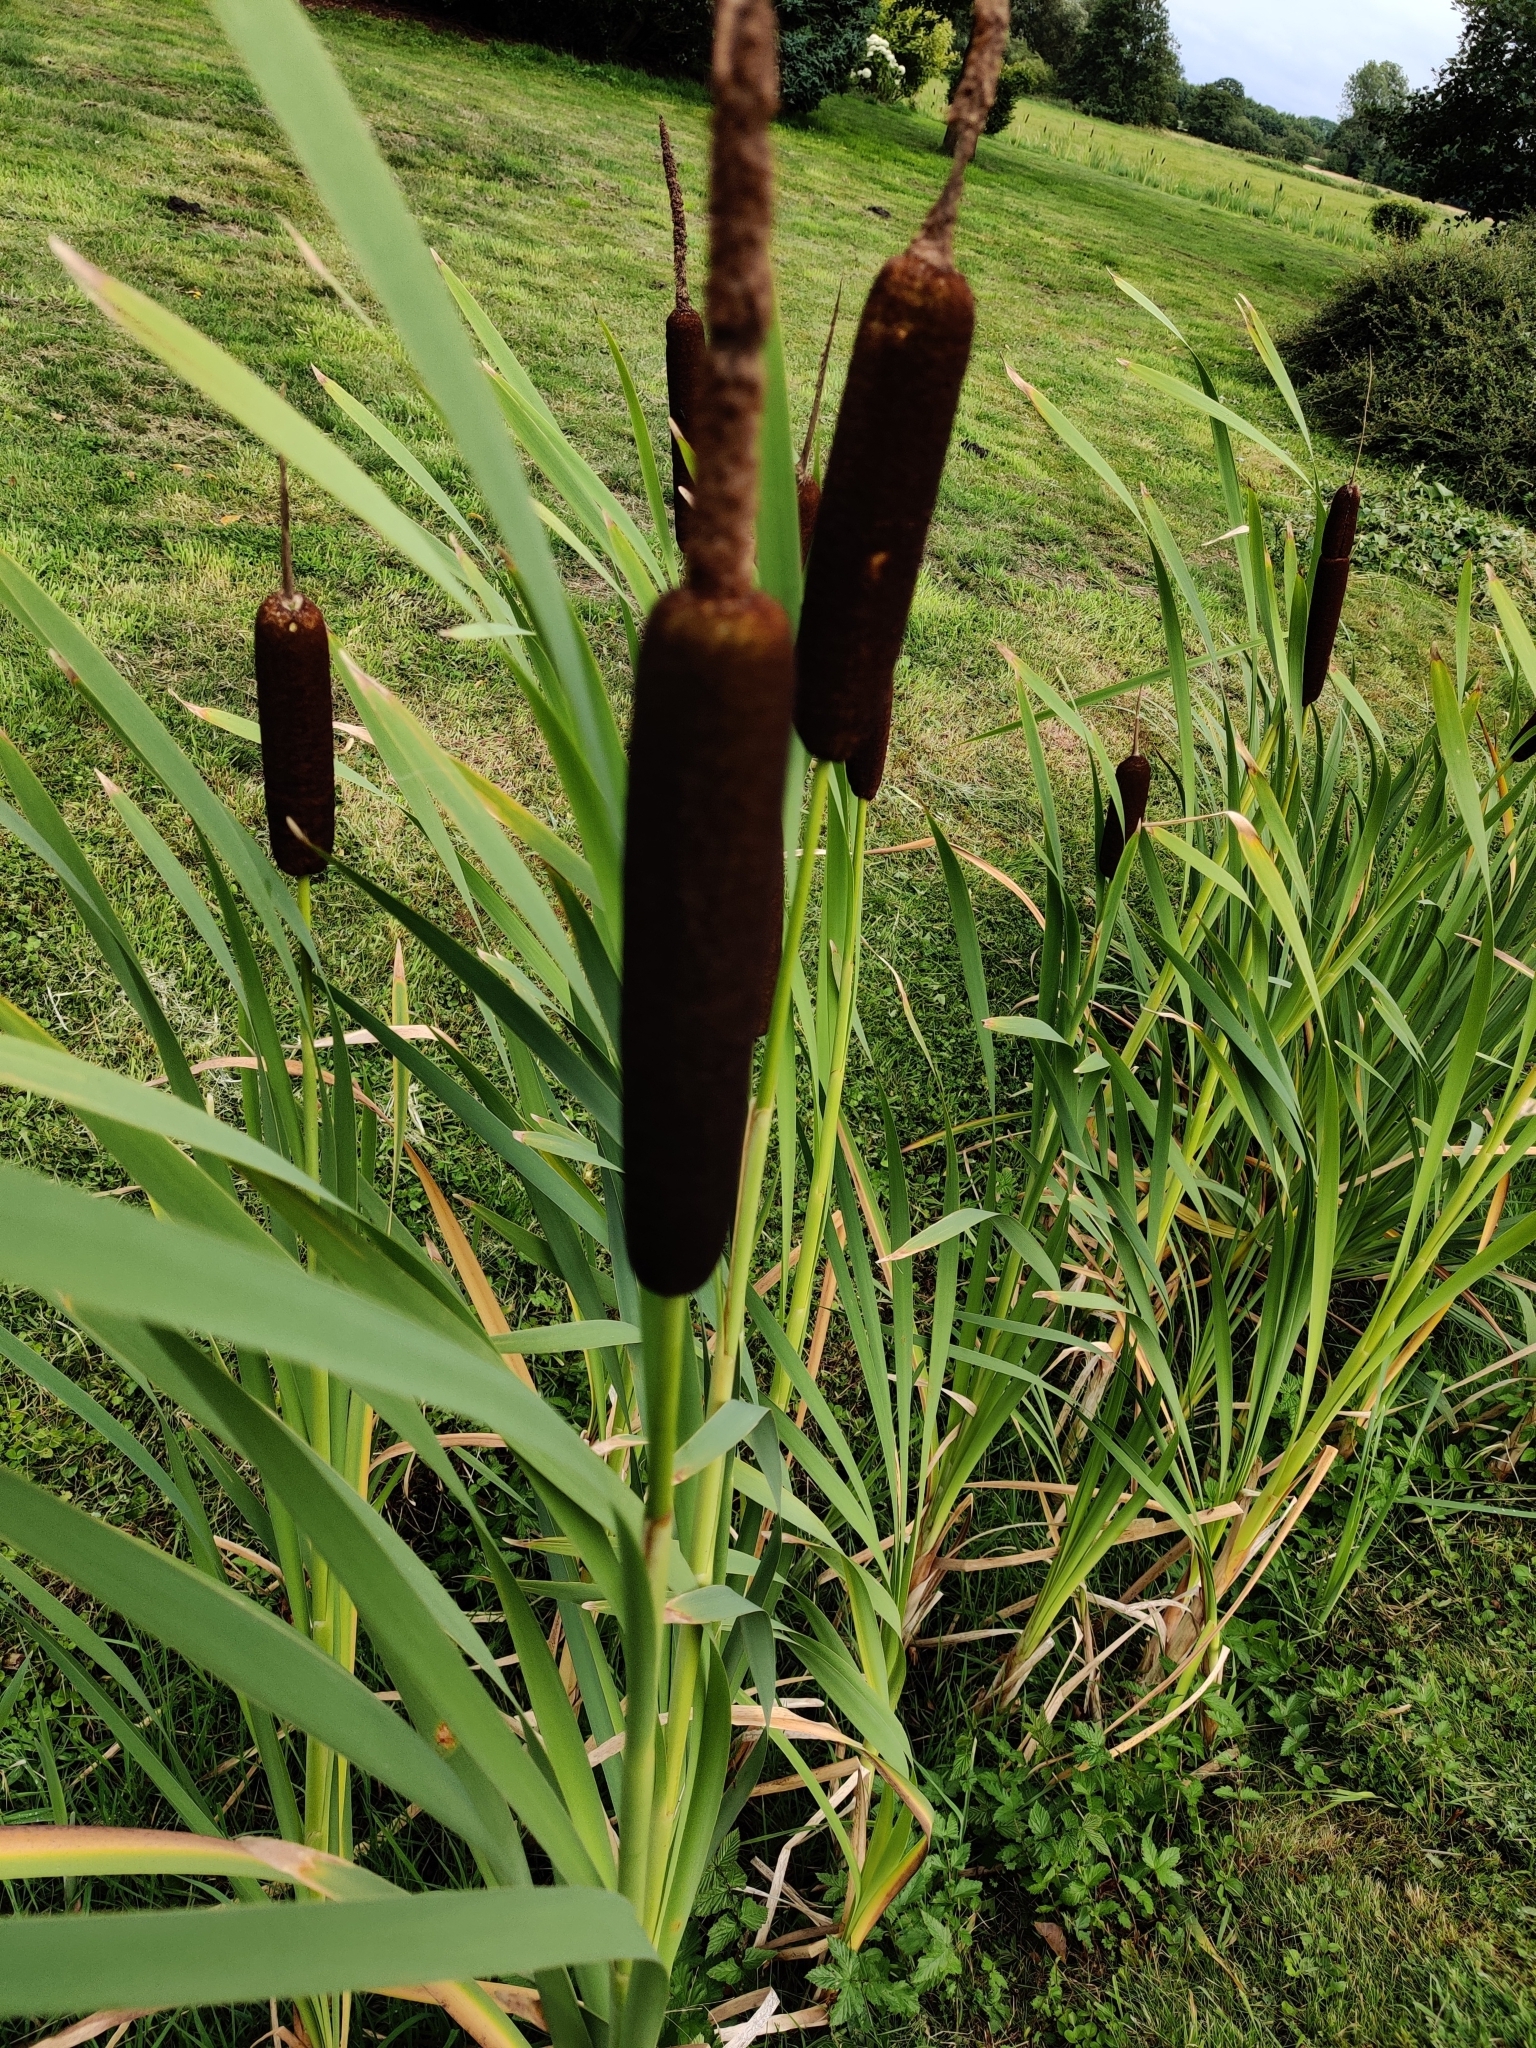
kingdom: Plantae
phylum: Tracheophyta
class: Liliopsida
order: Poales
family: Typhaceae
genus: Typha
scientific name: Typha latifolia
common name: Broadleaf cattail
